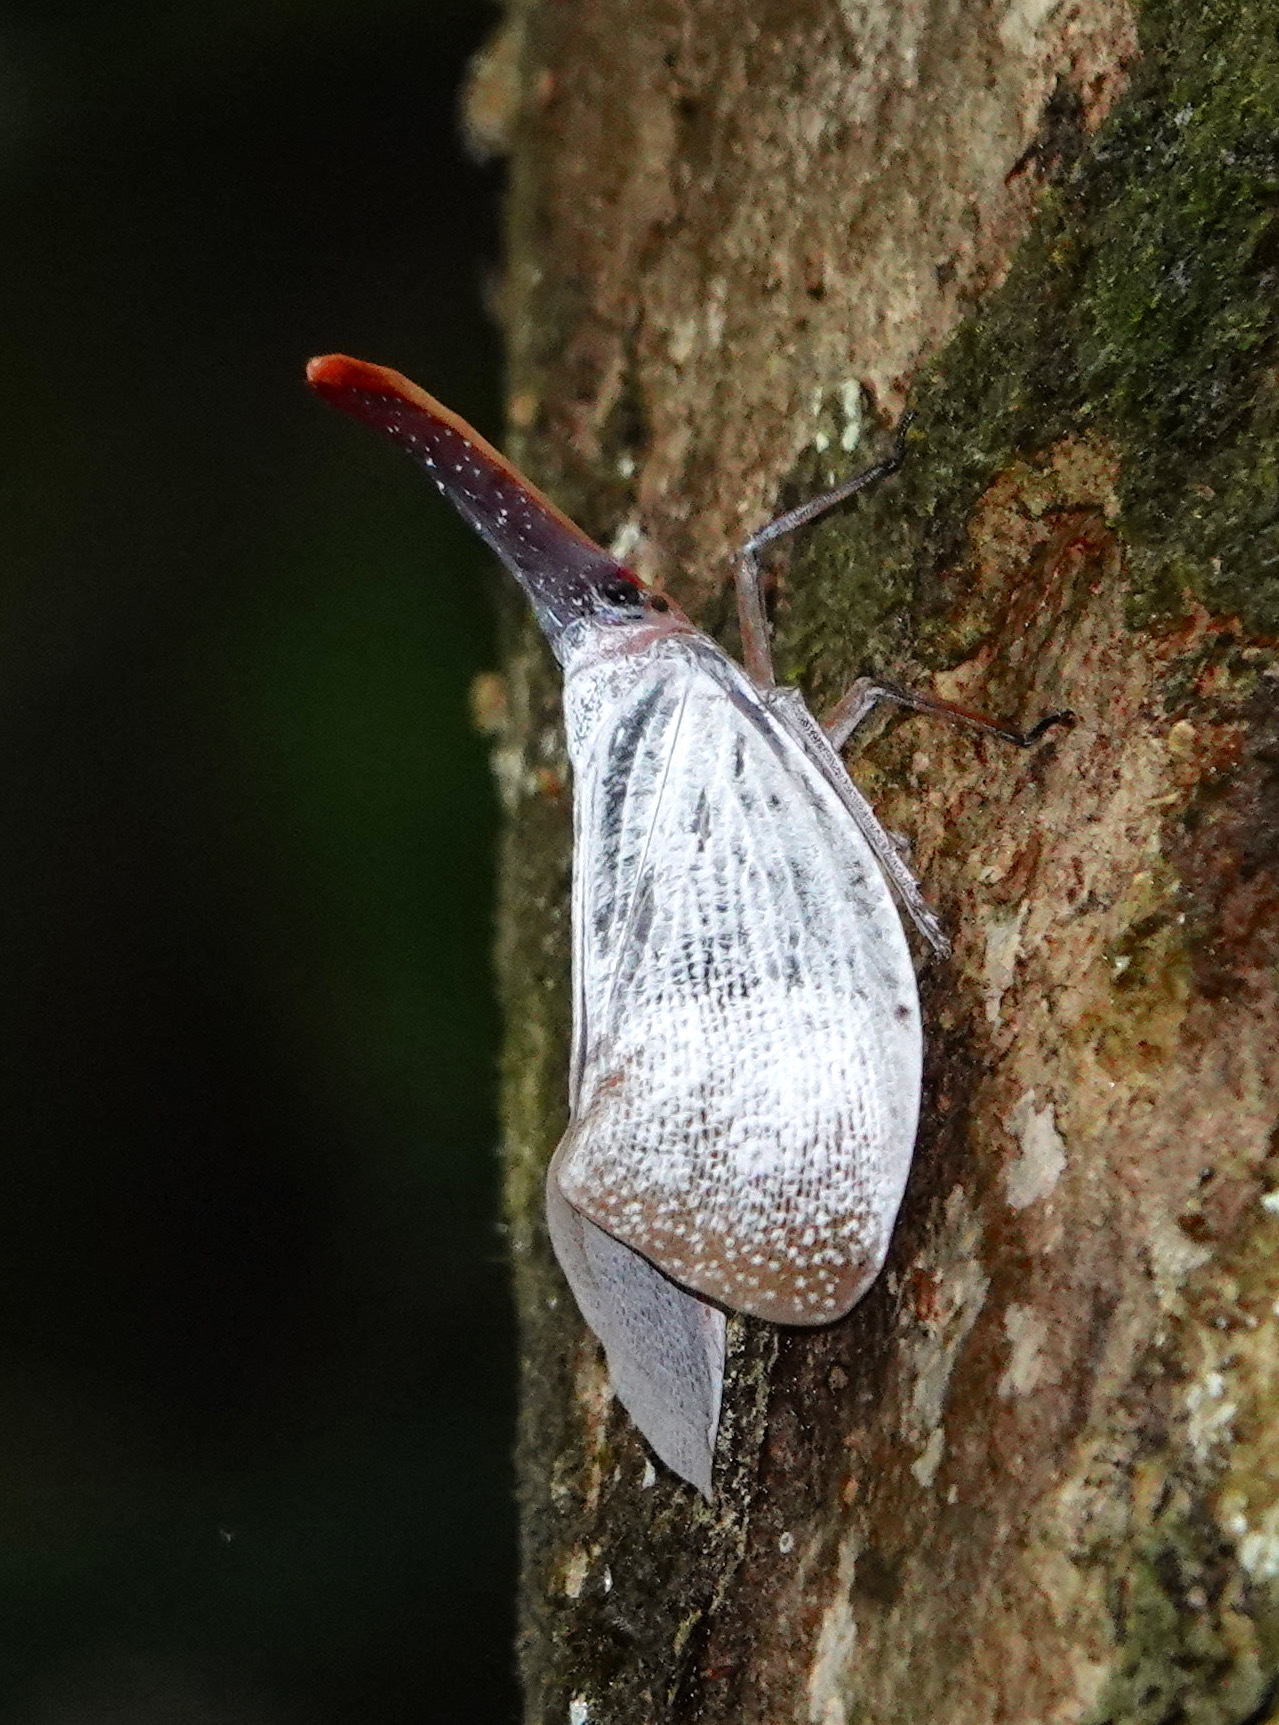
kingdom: Animalia
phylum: Arthropoda
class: Insecta
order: Hemiptera
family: Fulgoridae
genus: Pyrops
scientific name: Pyrops sultanus
